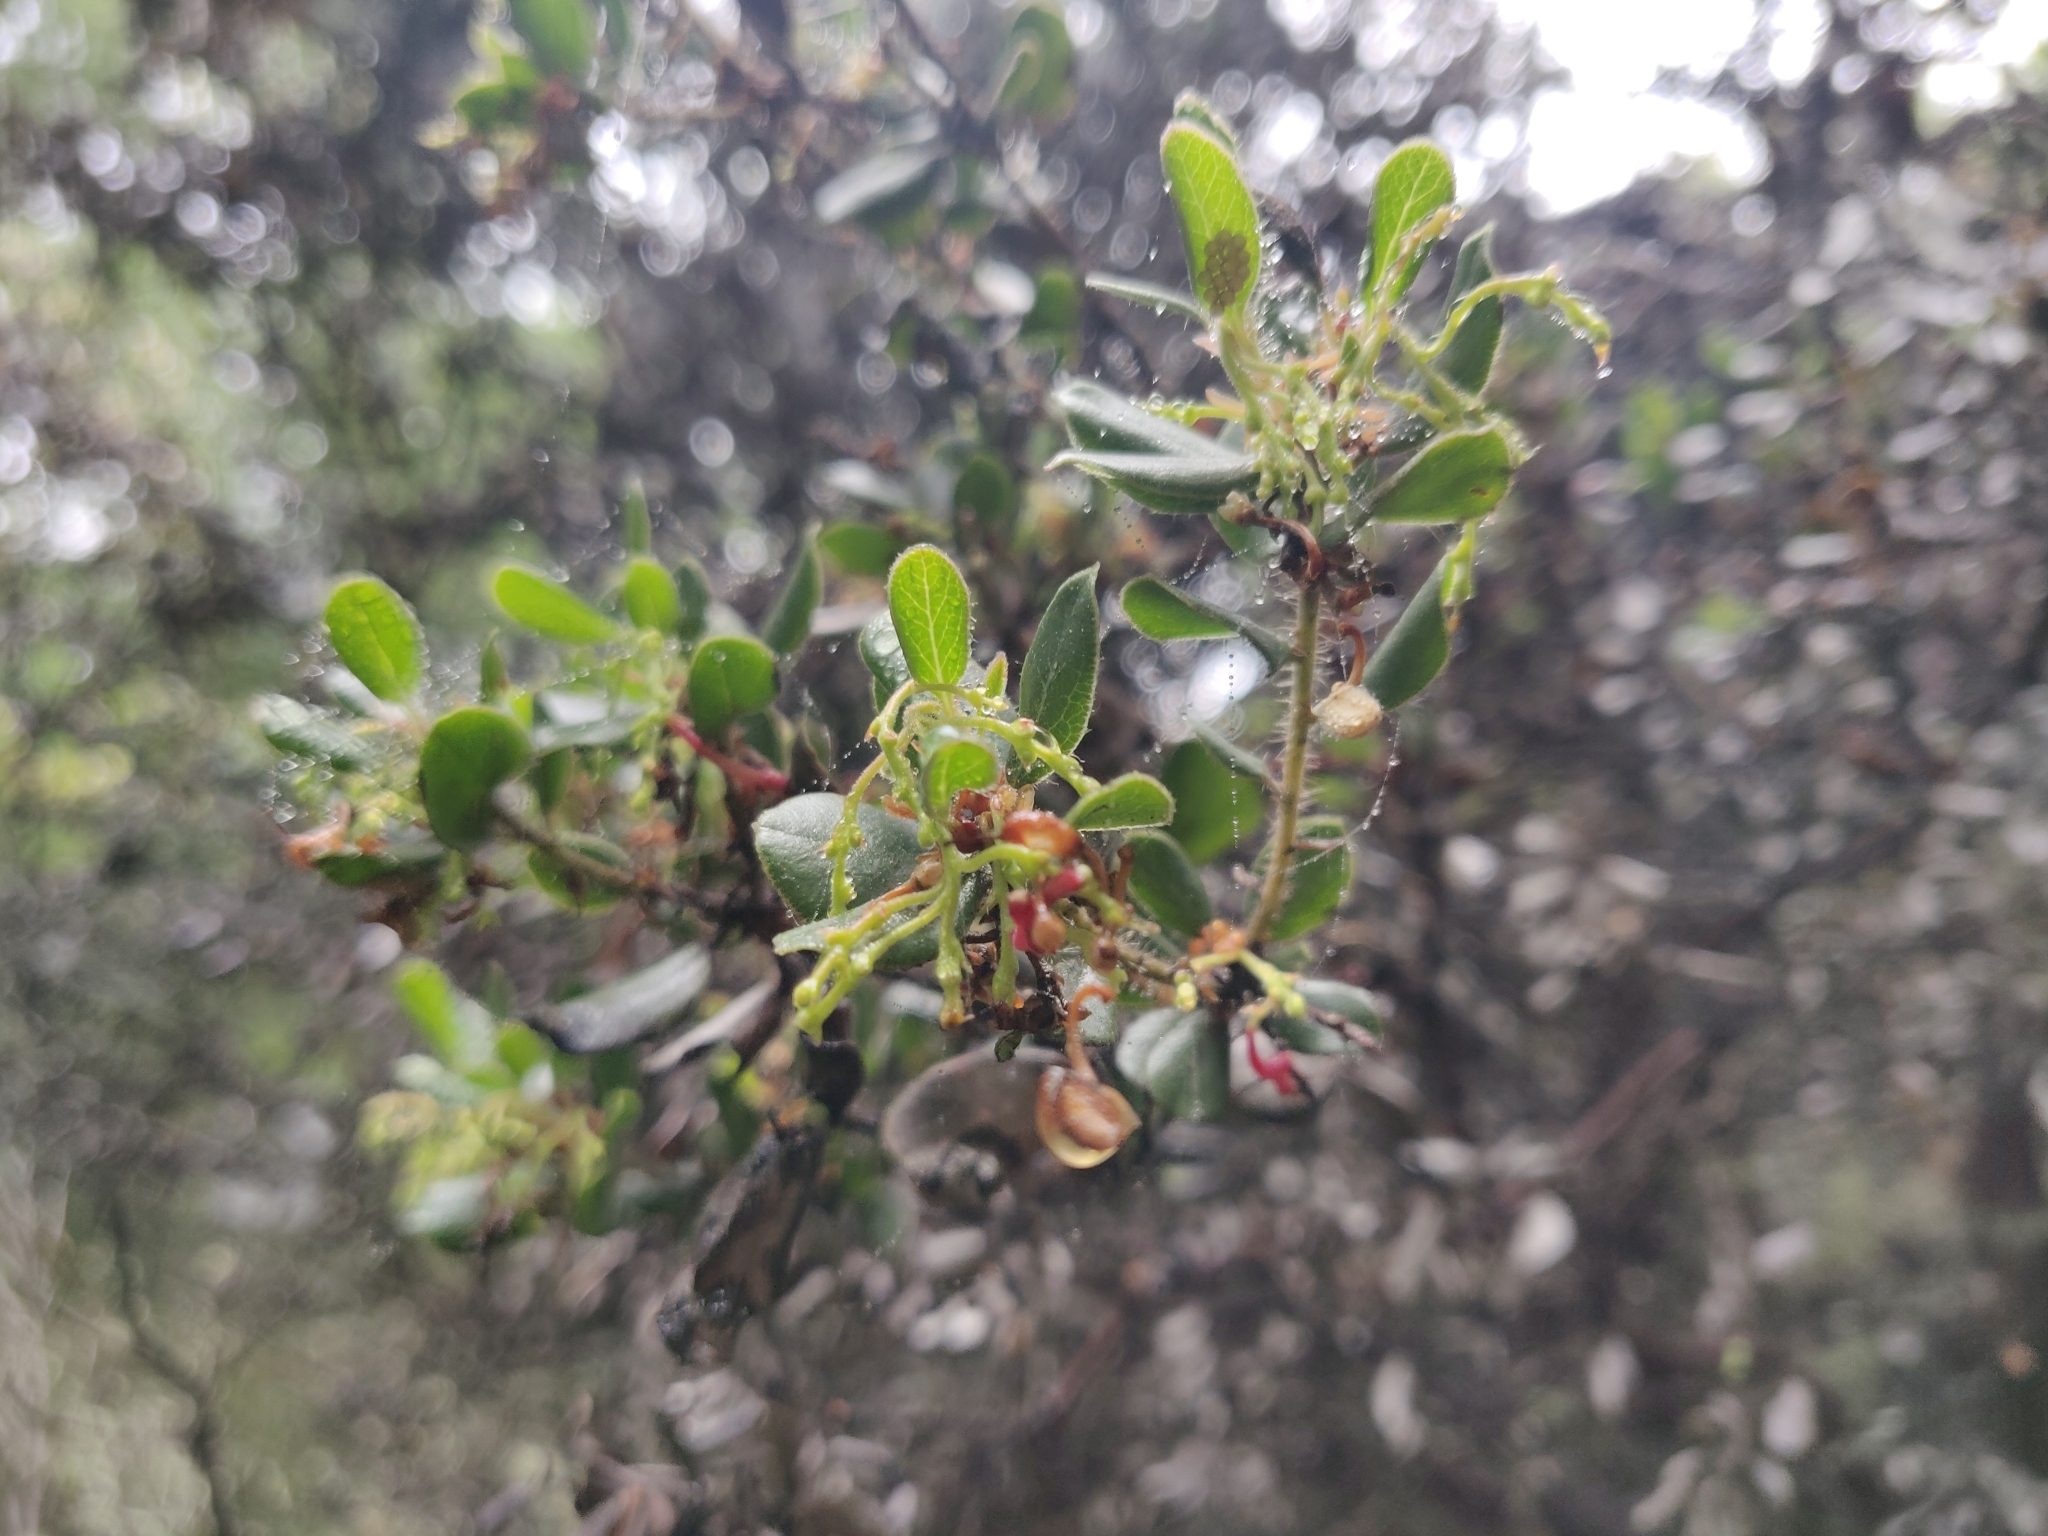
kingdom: Plantae
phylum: Tracheophyta
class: Magnoliopsida
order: Ericales
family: Ericaceae
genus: Arctostaphylos
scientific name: Arctostaphylos nummularia
